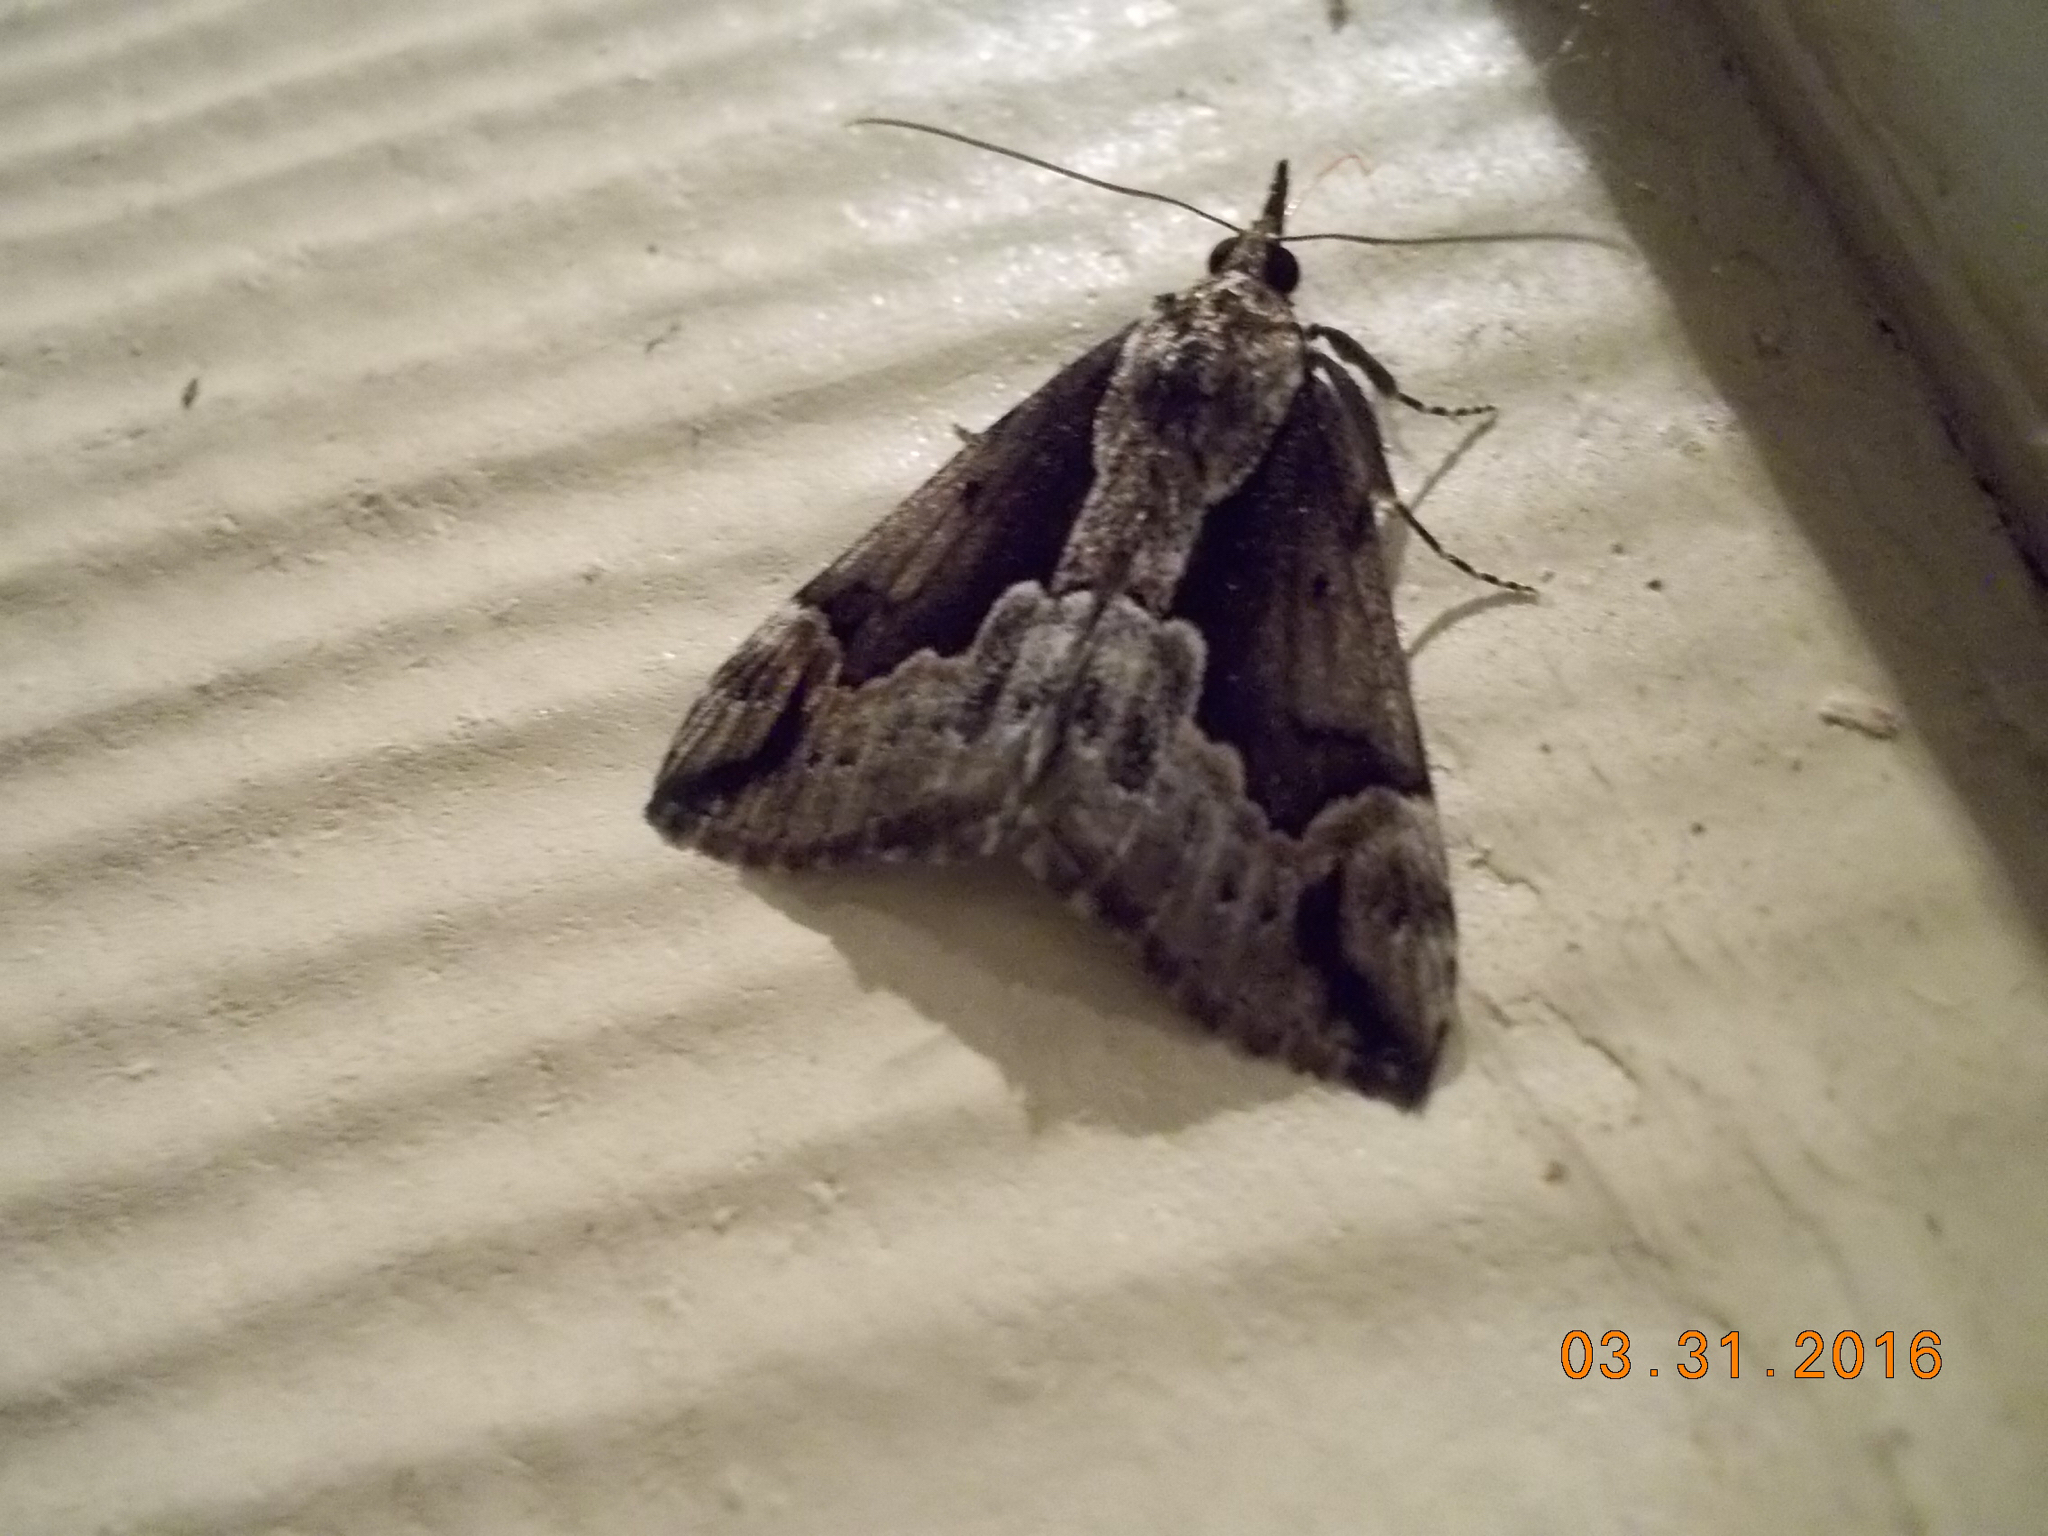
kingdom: Animalia
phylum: Arthropoda
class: Insecta
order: Lepidoptera
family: Erebidae
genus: Hypena
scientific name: Hypena baltimoralis
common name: Baltimore snout
